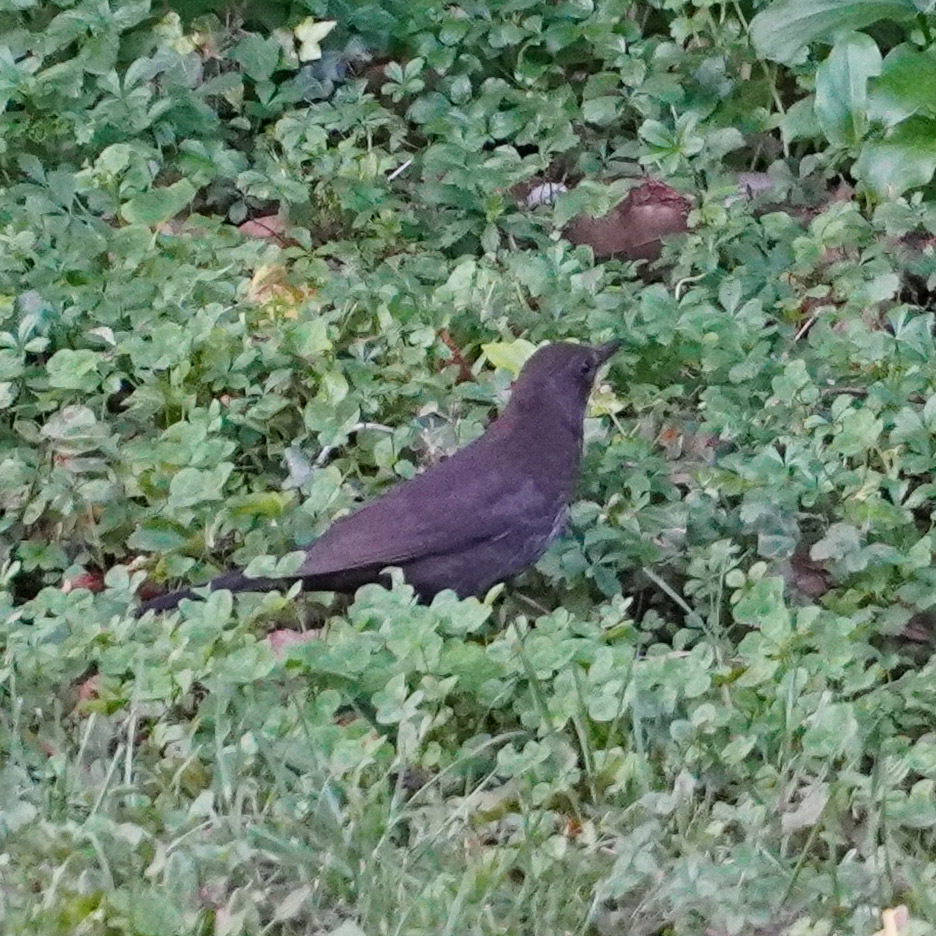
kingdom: Animalia
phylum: Chordata
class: Aves
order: Passeriformes
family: Turdidae
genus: Turdus
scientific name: Turdus merula
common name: Common blackbird
